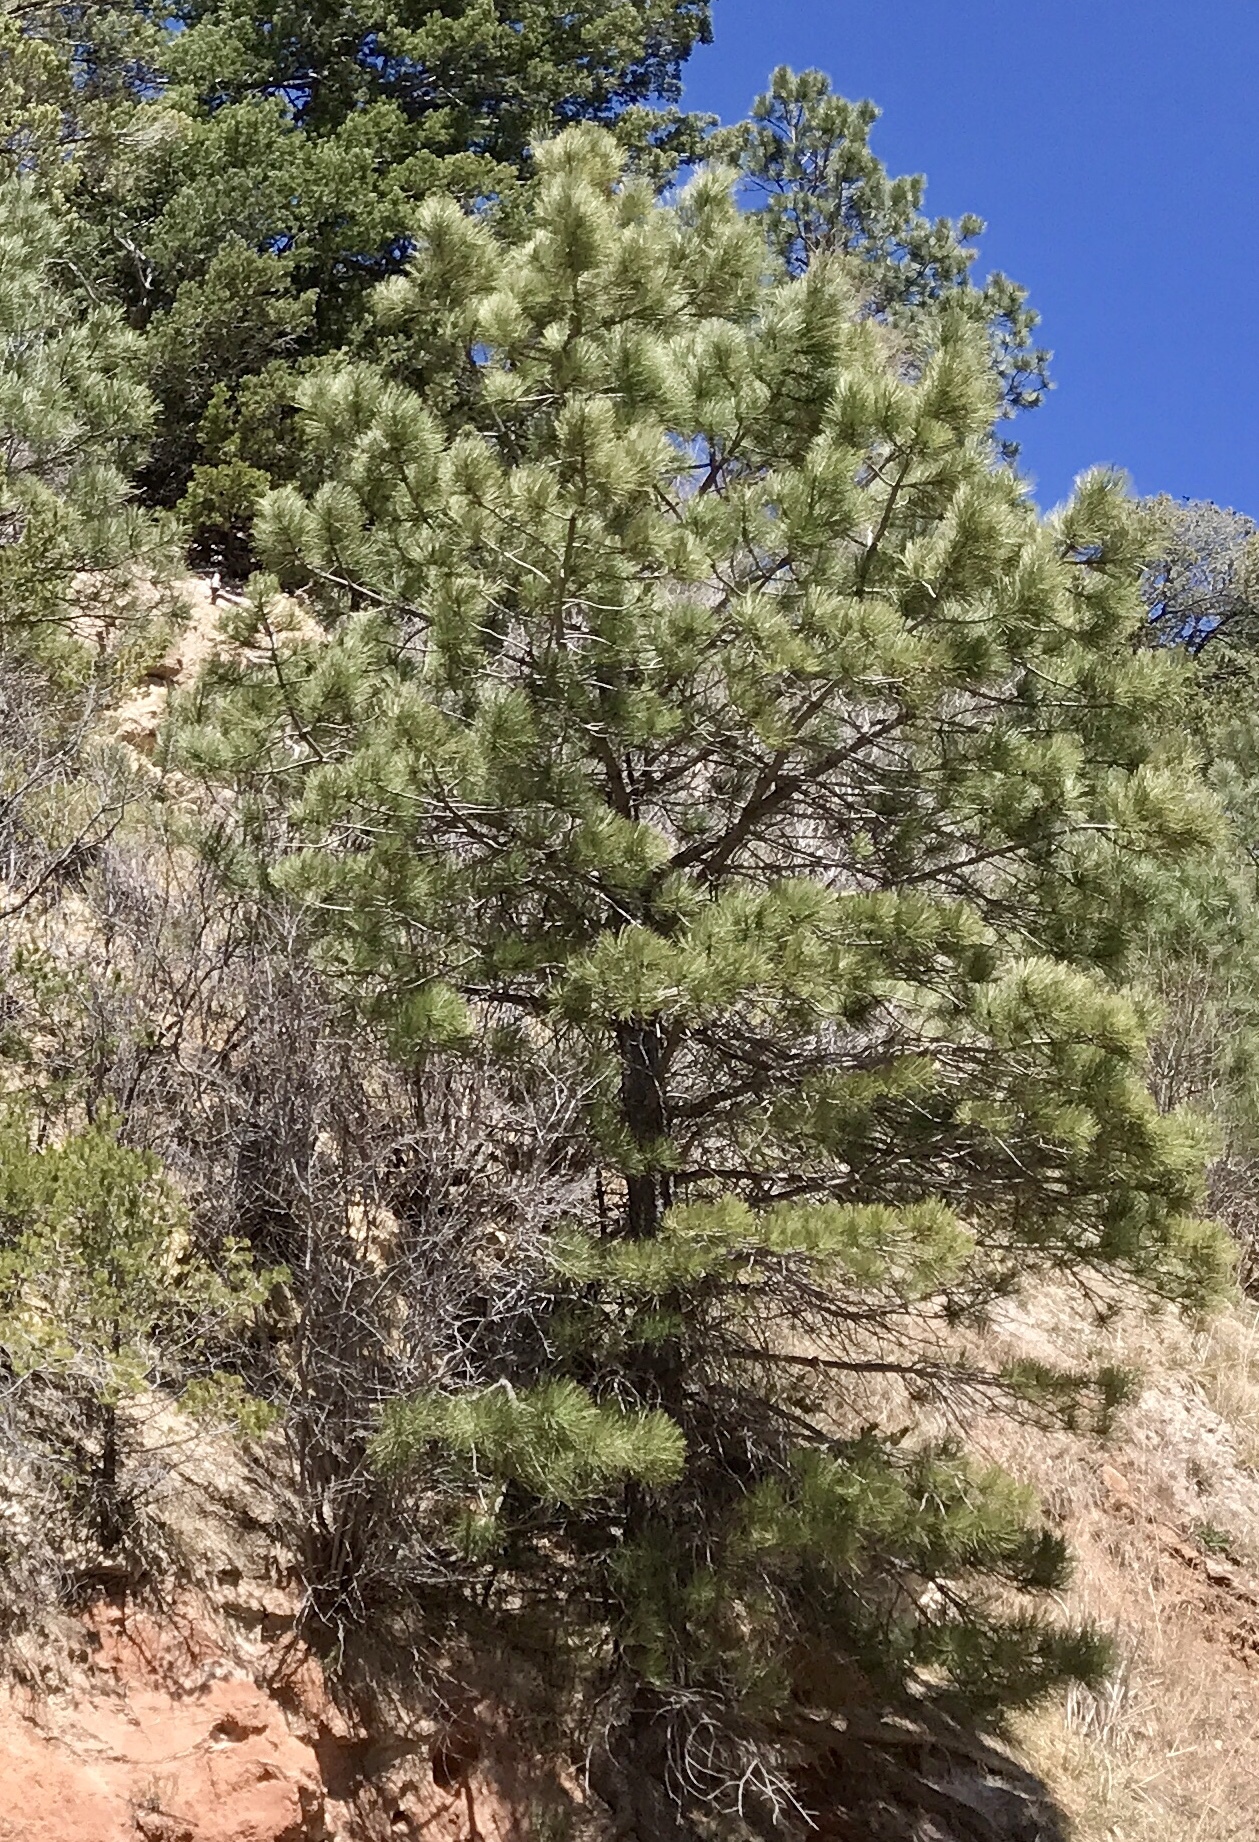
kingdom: Plantae
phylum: Tracheophyta
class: Pinopsida
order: Pinales
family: Pinaceae
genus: Pinus
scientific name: Pinus ponderosa
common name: Western yellow-pine
